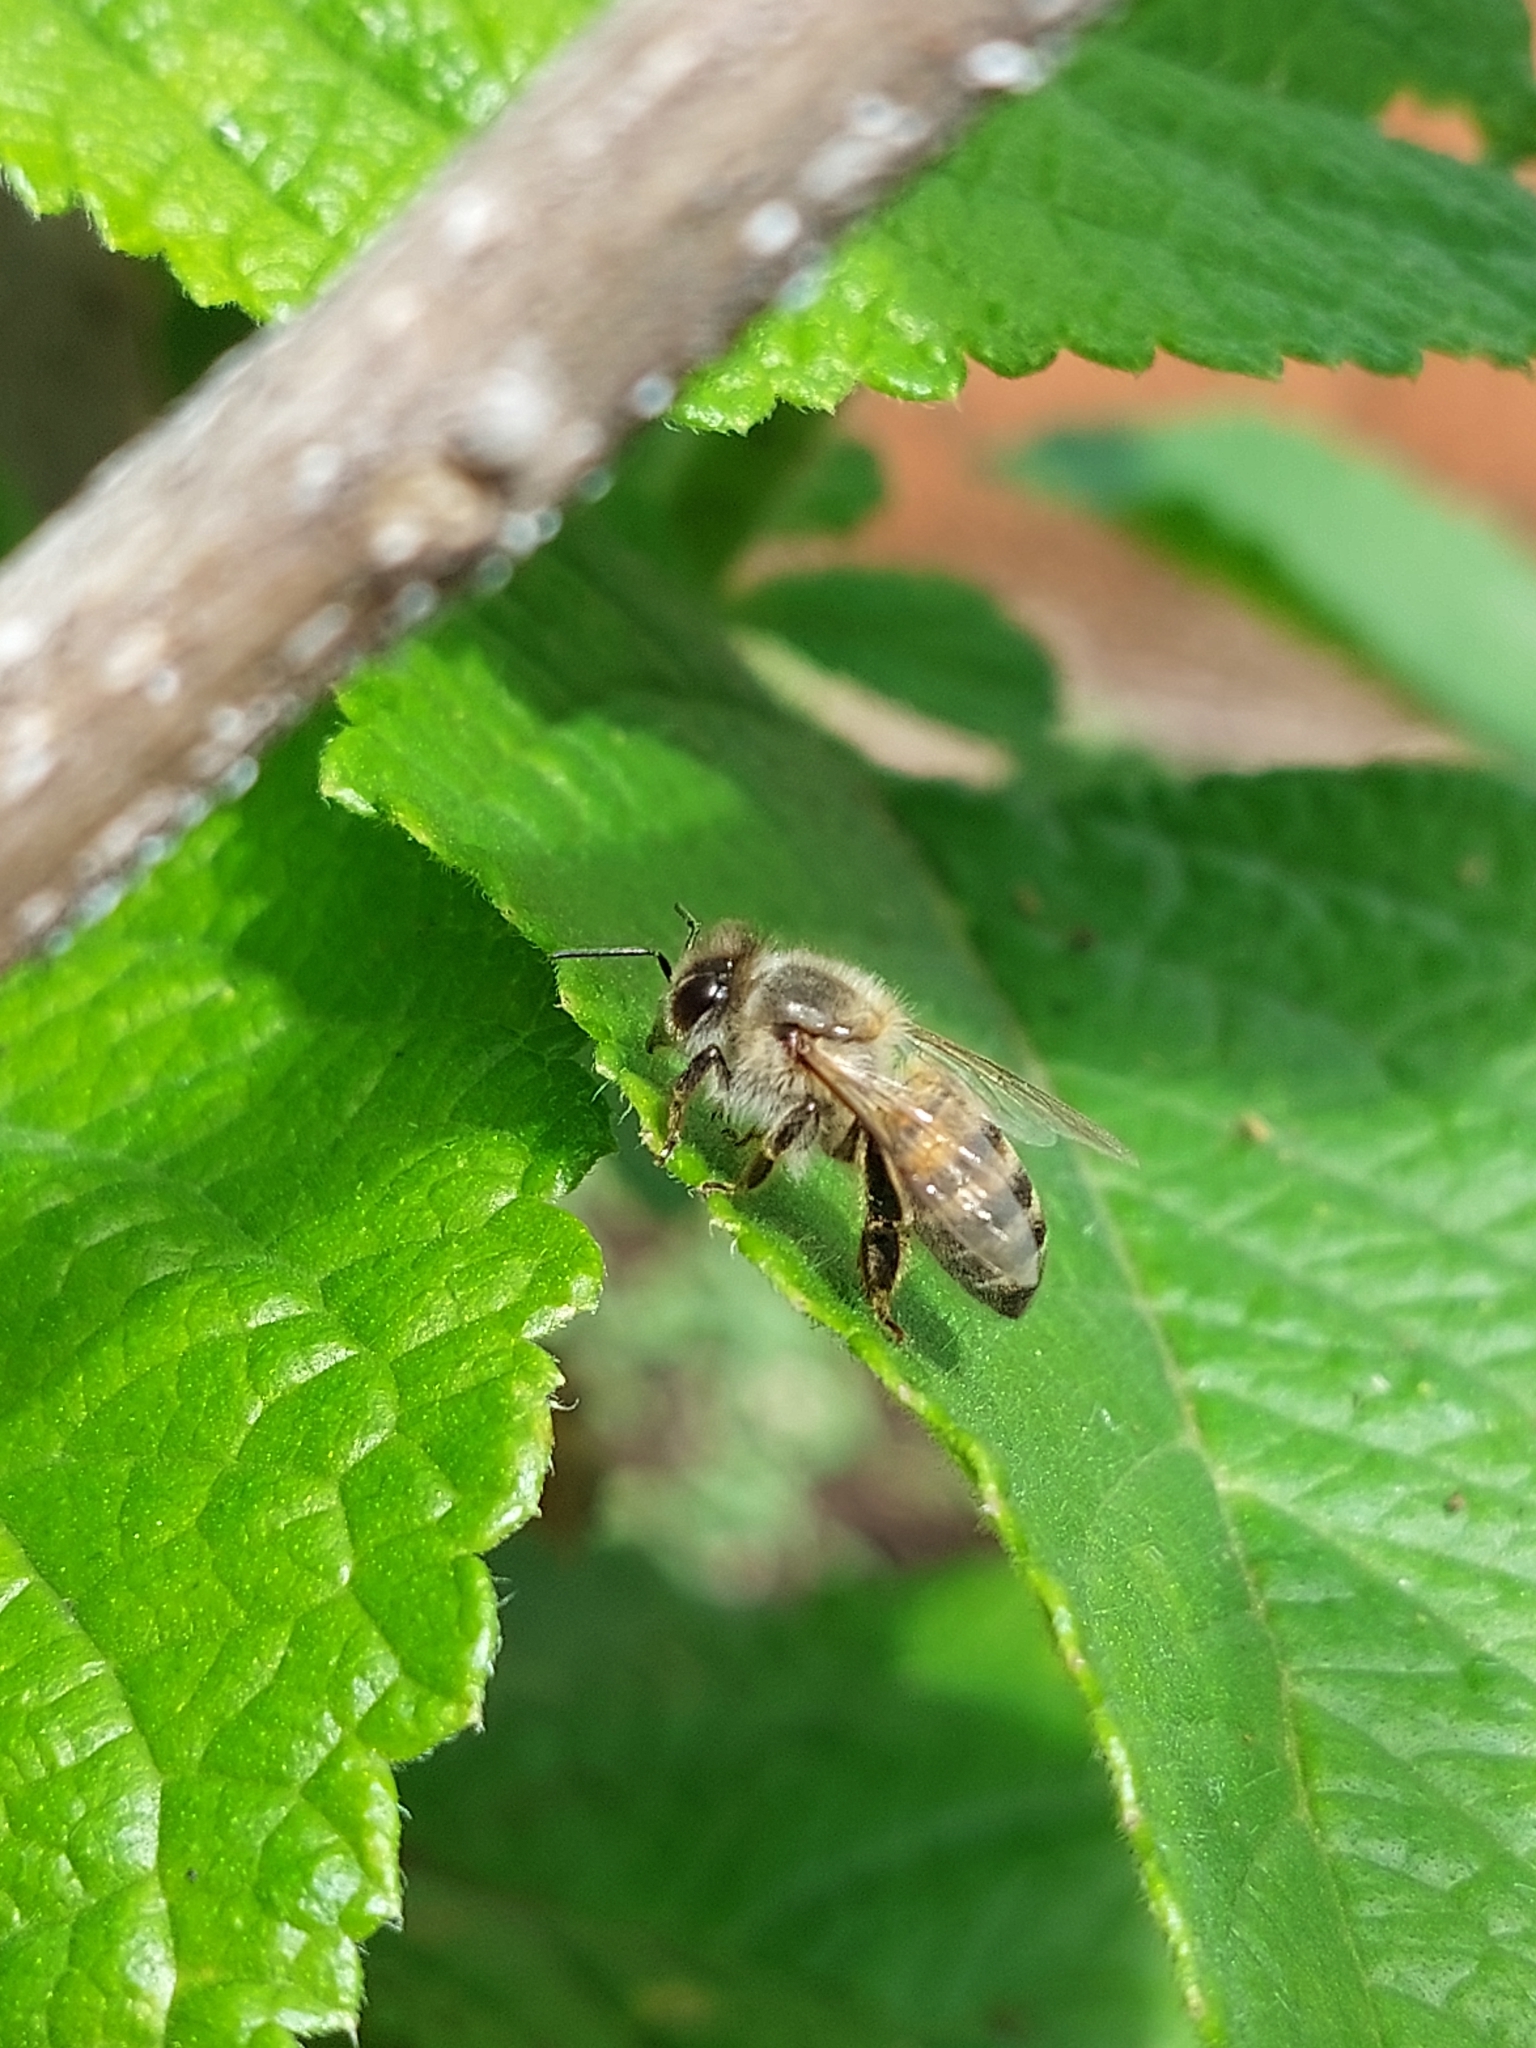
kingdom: Animalia
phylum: Arthropoda
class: Insecta
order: Hymenoptera
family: Apidae
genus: Apis
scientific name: Apis mellifera
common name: Honey bee
